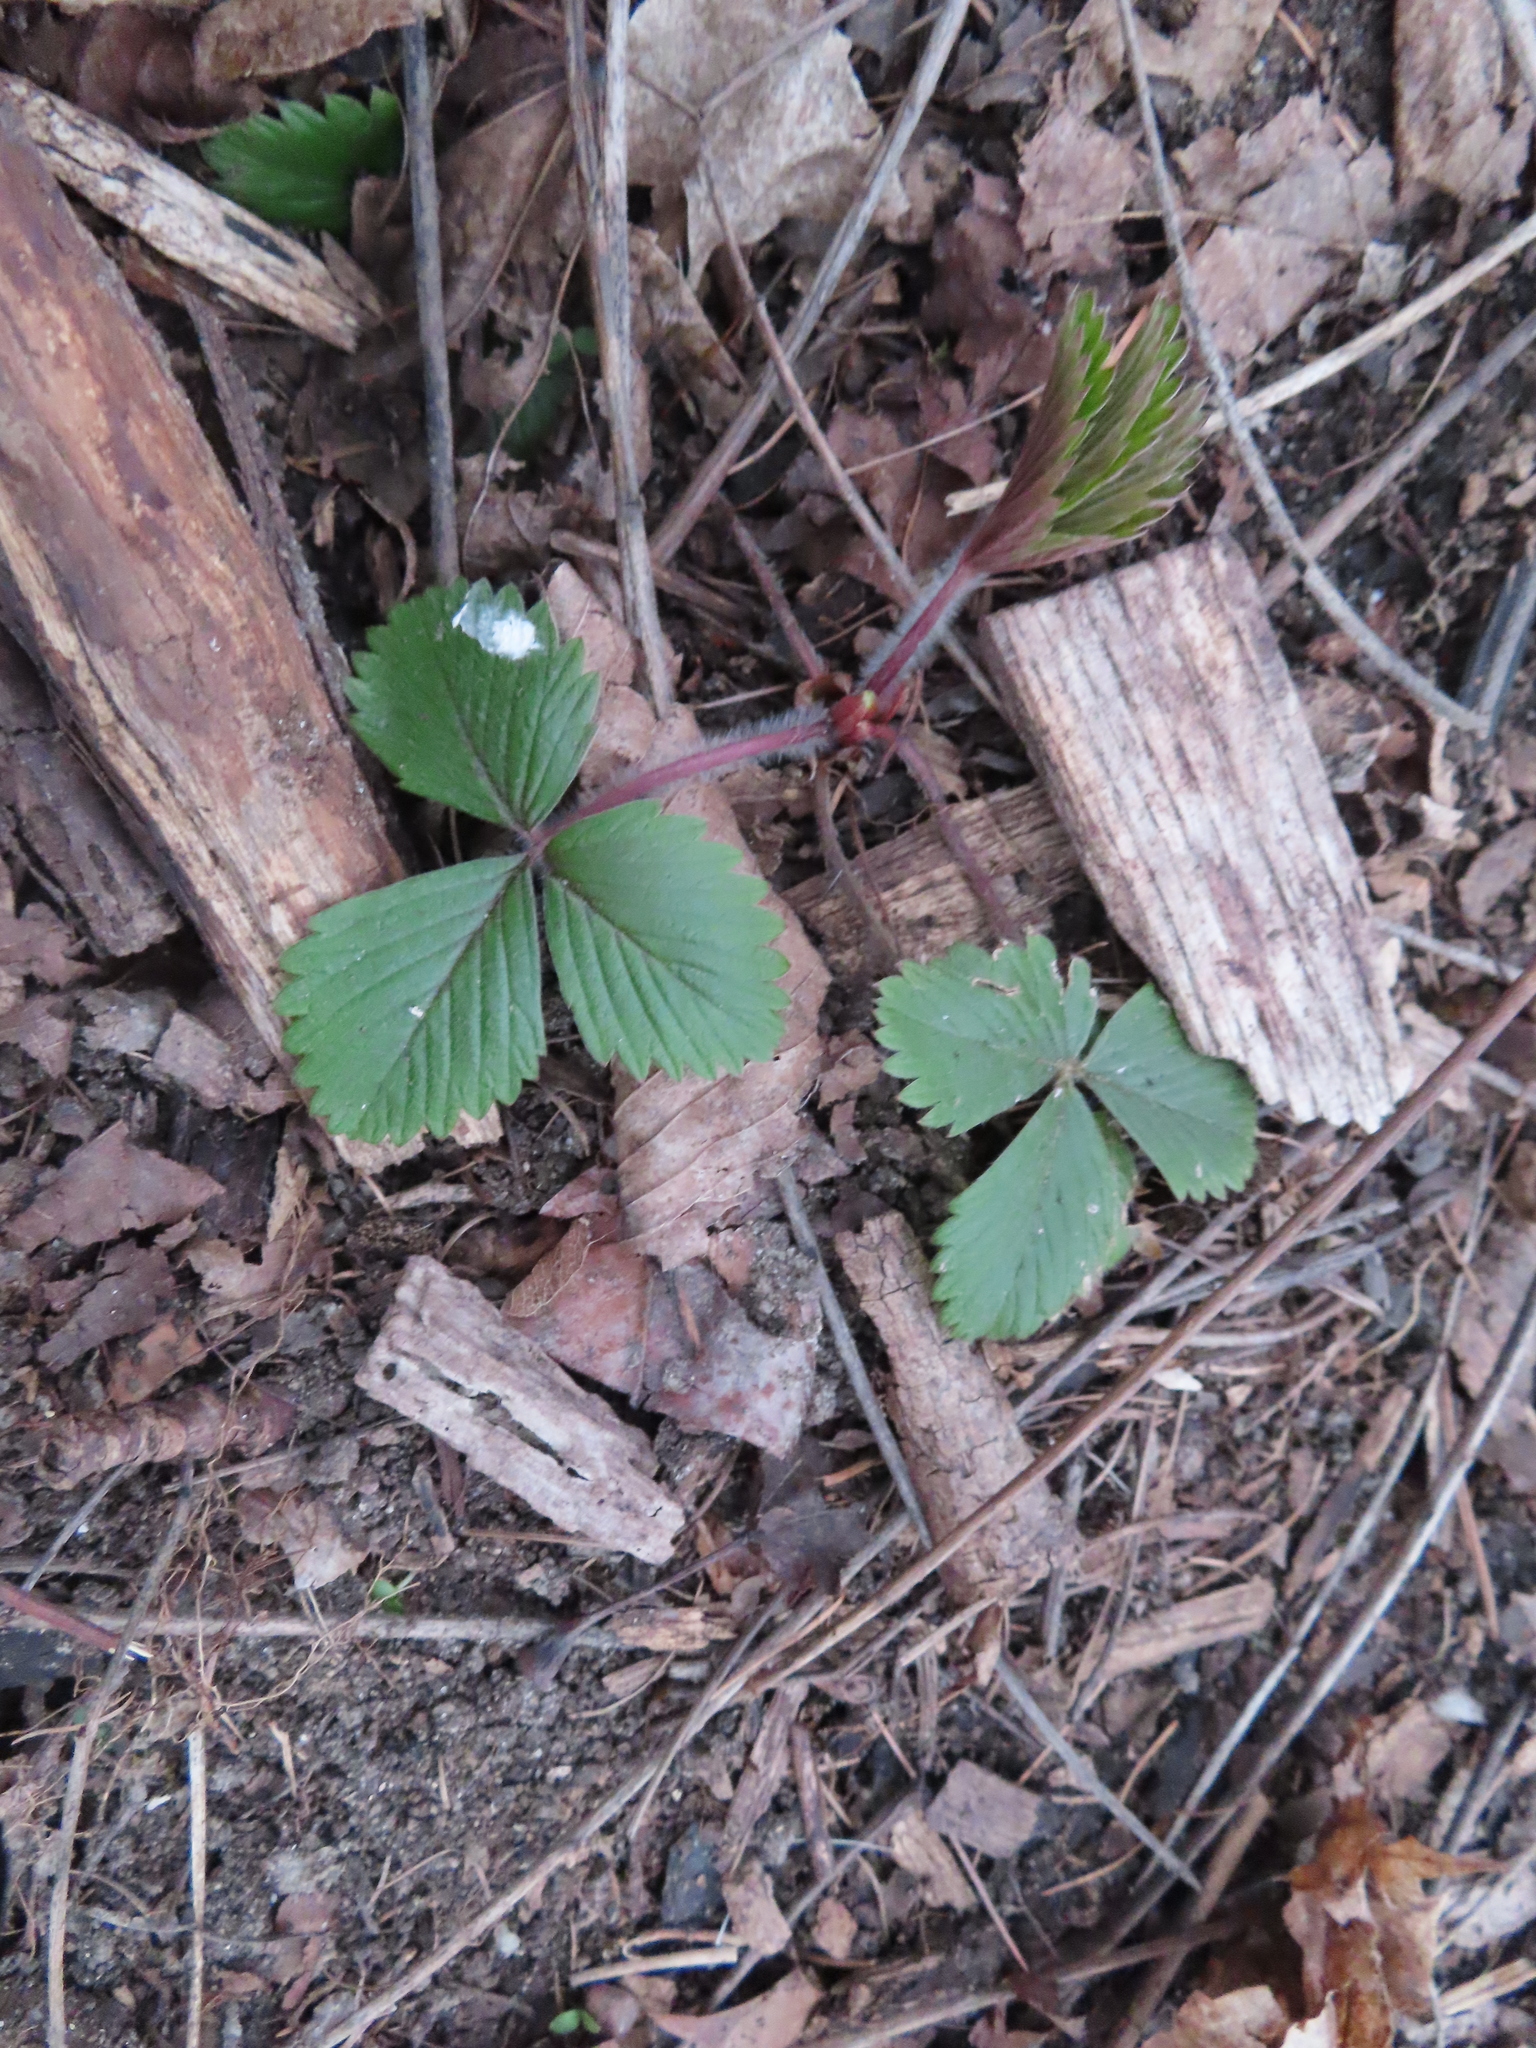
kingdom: Plantae
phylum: Tracheophyta
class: Magnoliopsida
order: Rosales
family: Rosaceae
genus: Fragaria
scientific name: Fragaria virginiana
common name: Thickleaved wild strawberry
